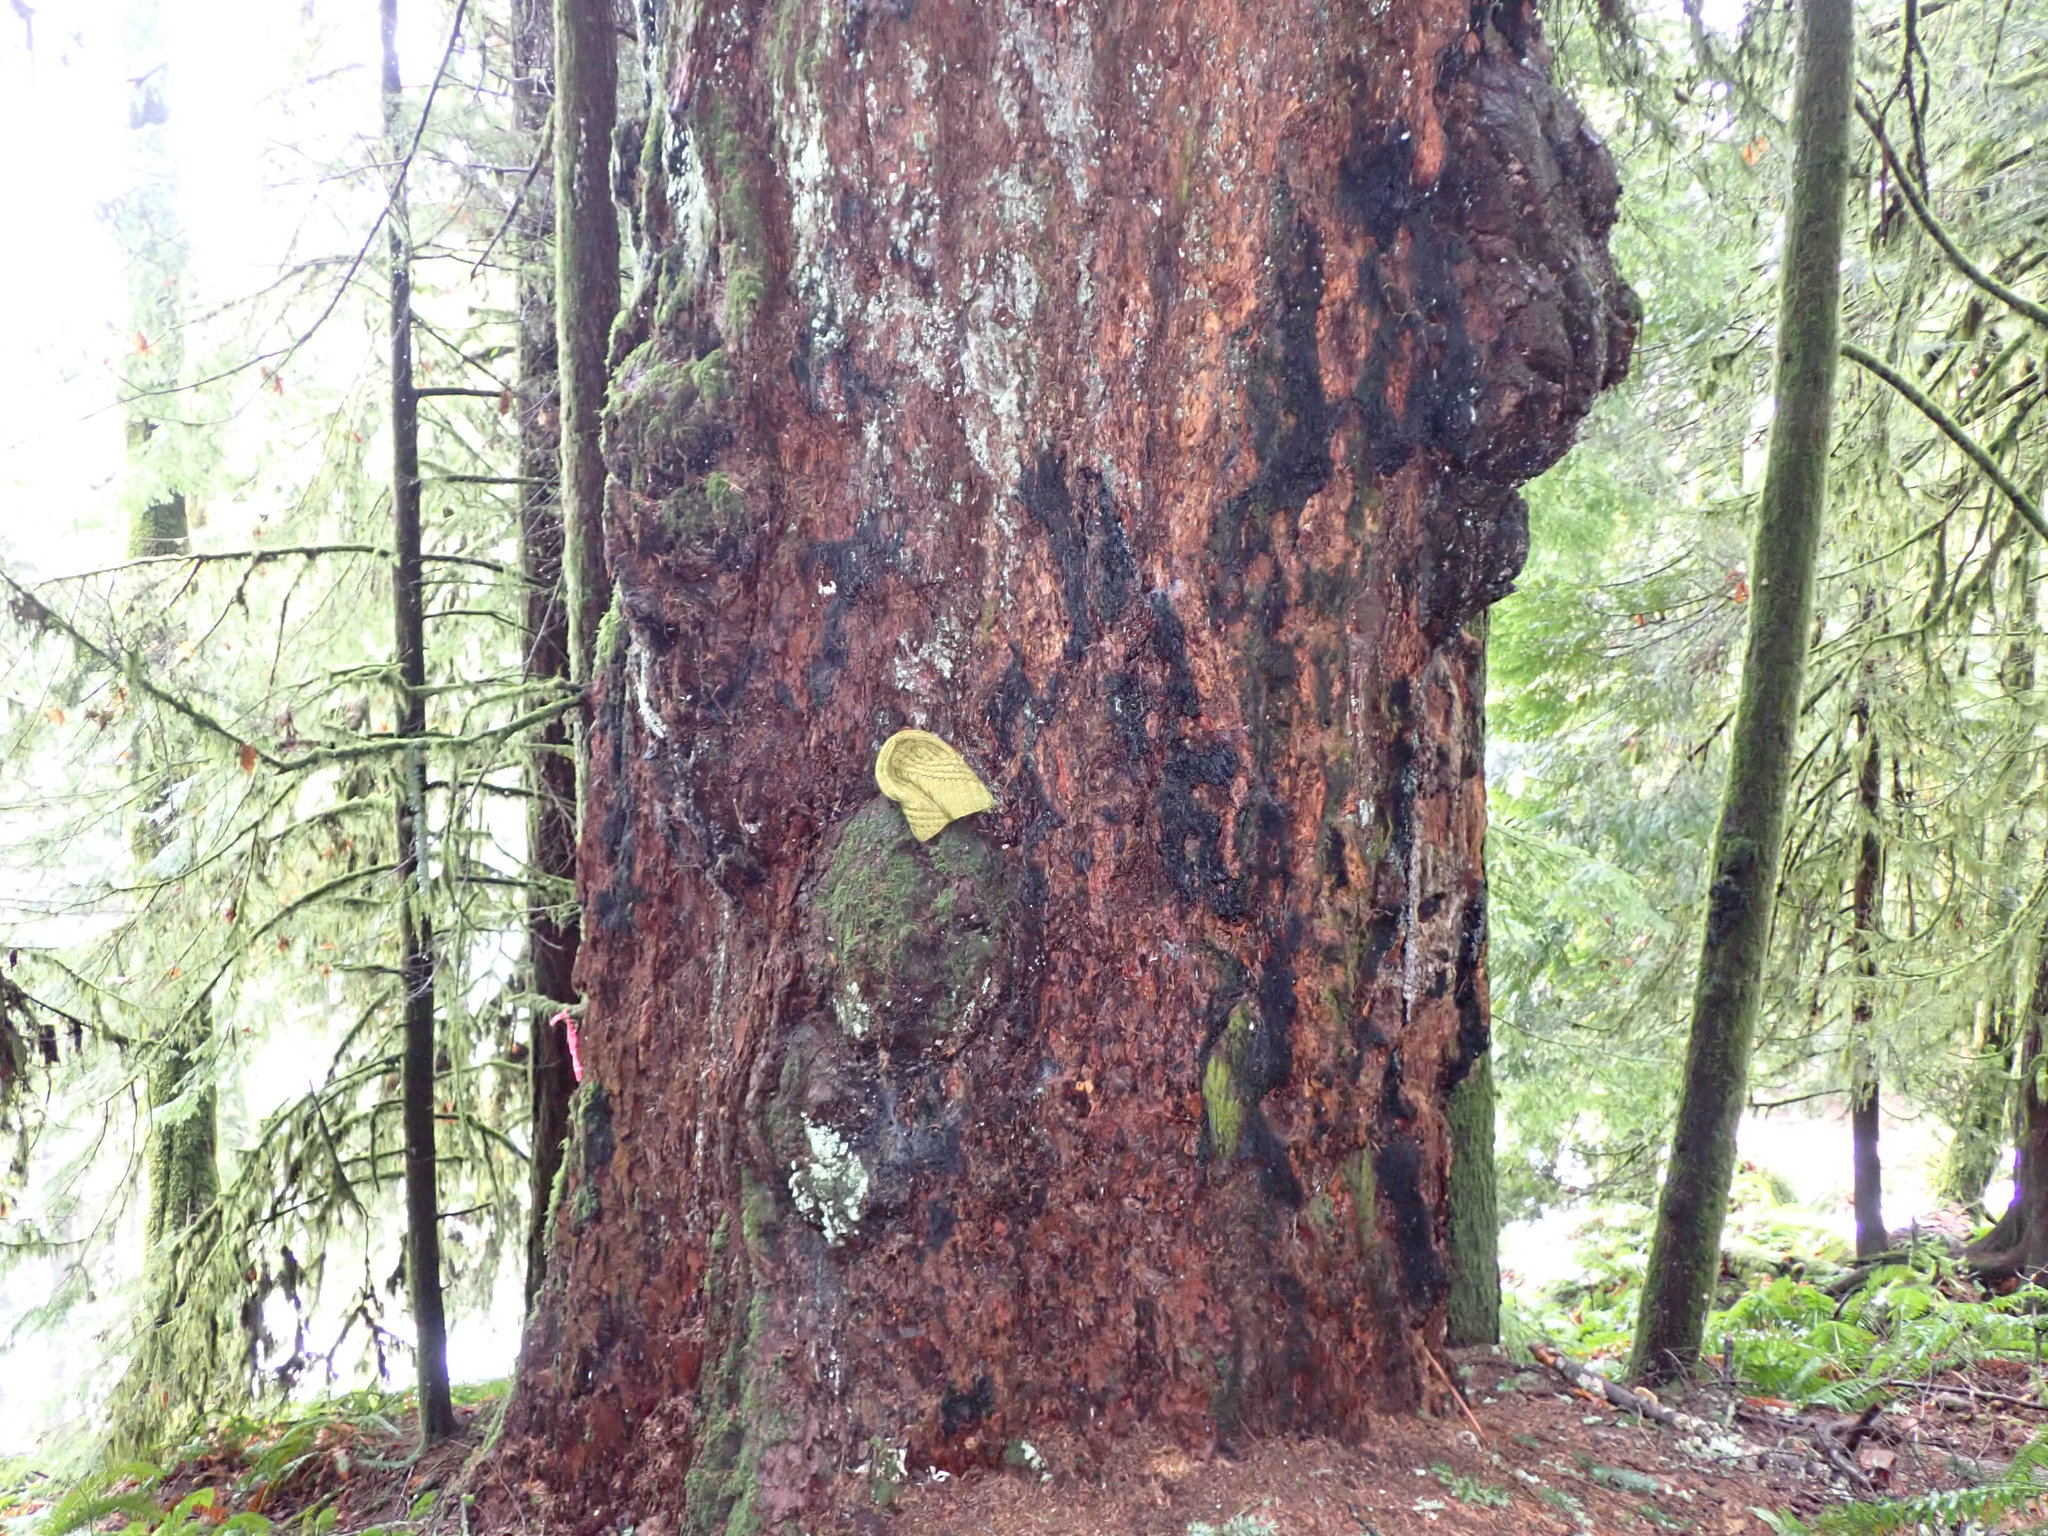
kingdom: Plantae
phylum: Tracheophyta
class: Pinopsida
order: Pinales
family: Pinaceae
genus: Pseudotsuga
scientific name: Pseudotsuga menziesii
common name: Douglas fir
